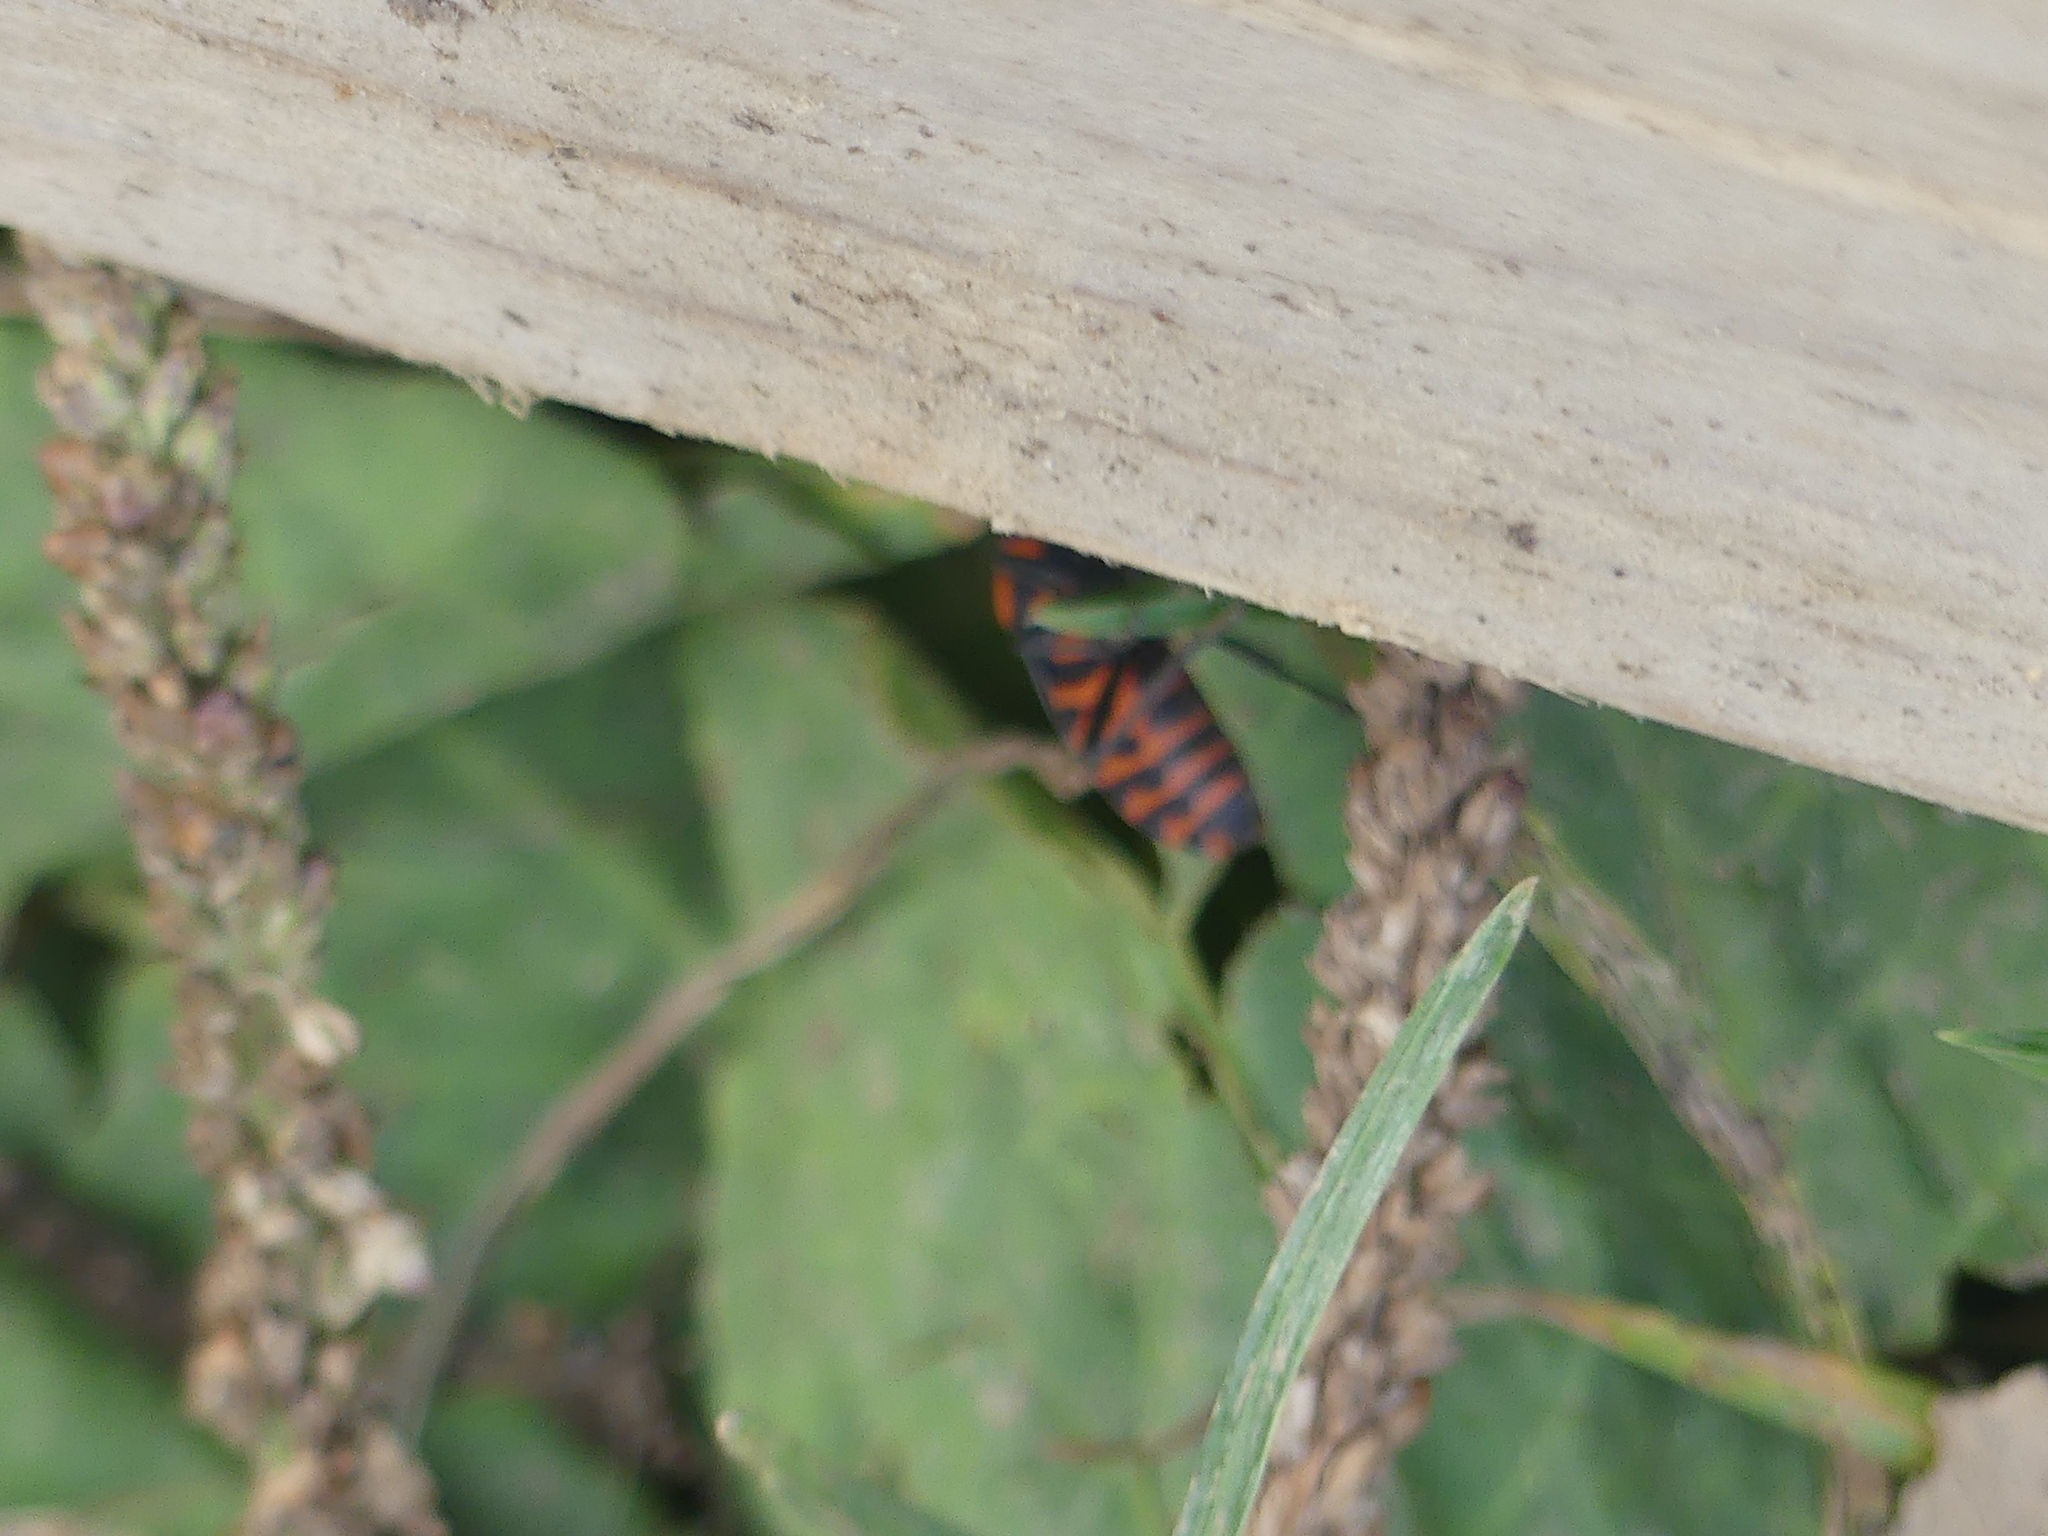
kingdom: Animalia
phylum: Arthropoda
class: Insecta
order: Hemiptera
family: Lygaeidae
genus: Spilostethus
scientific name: Spilostethus saxatilis
